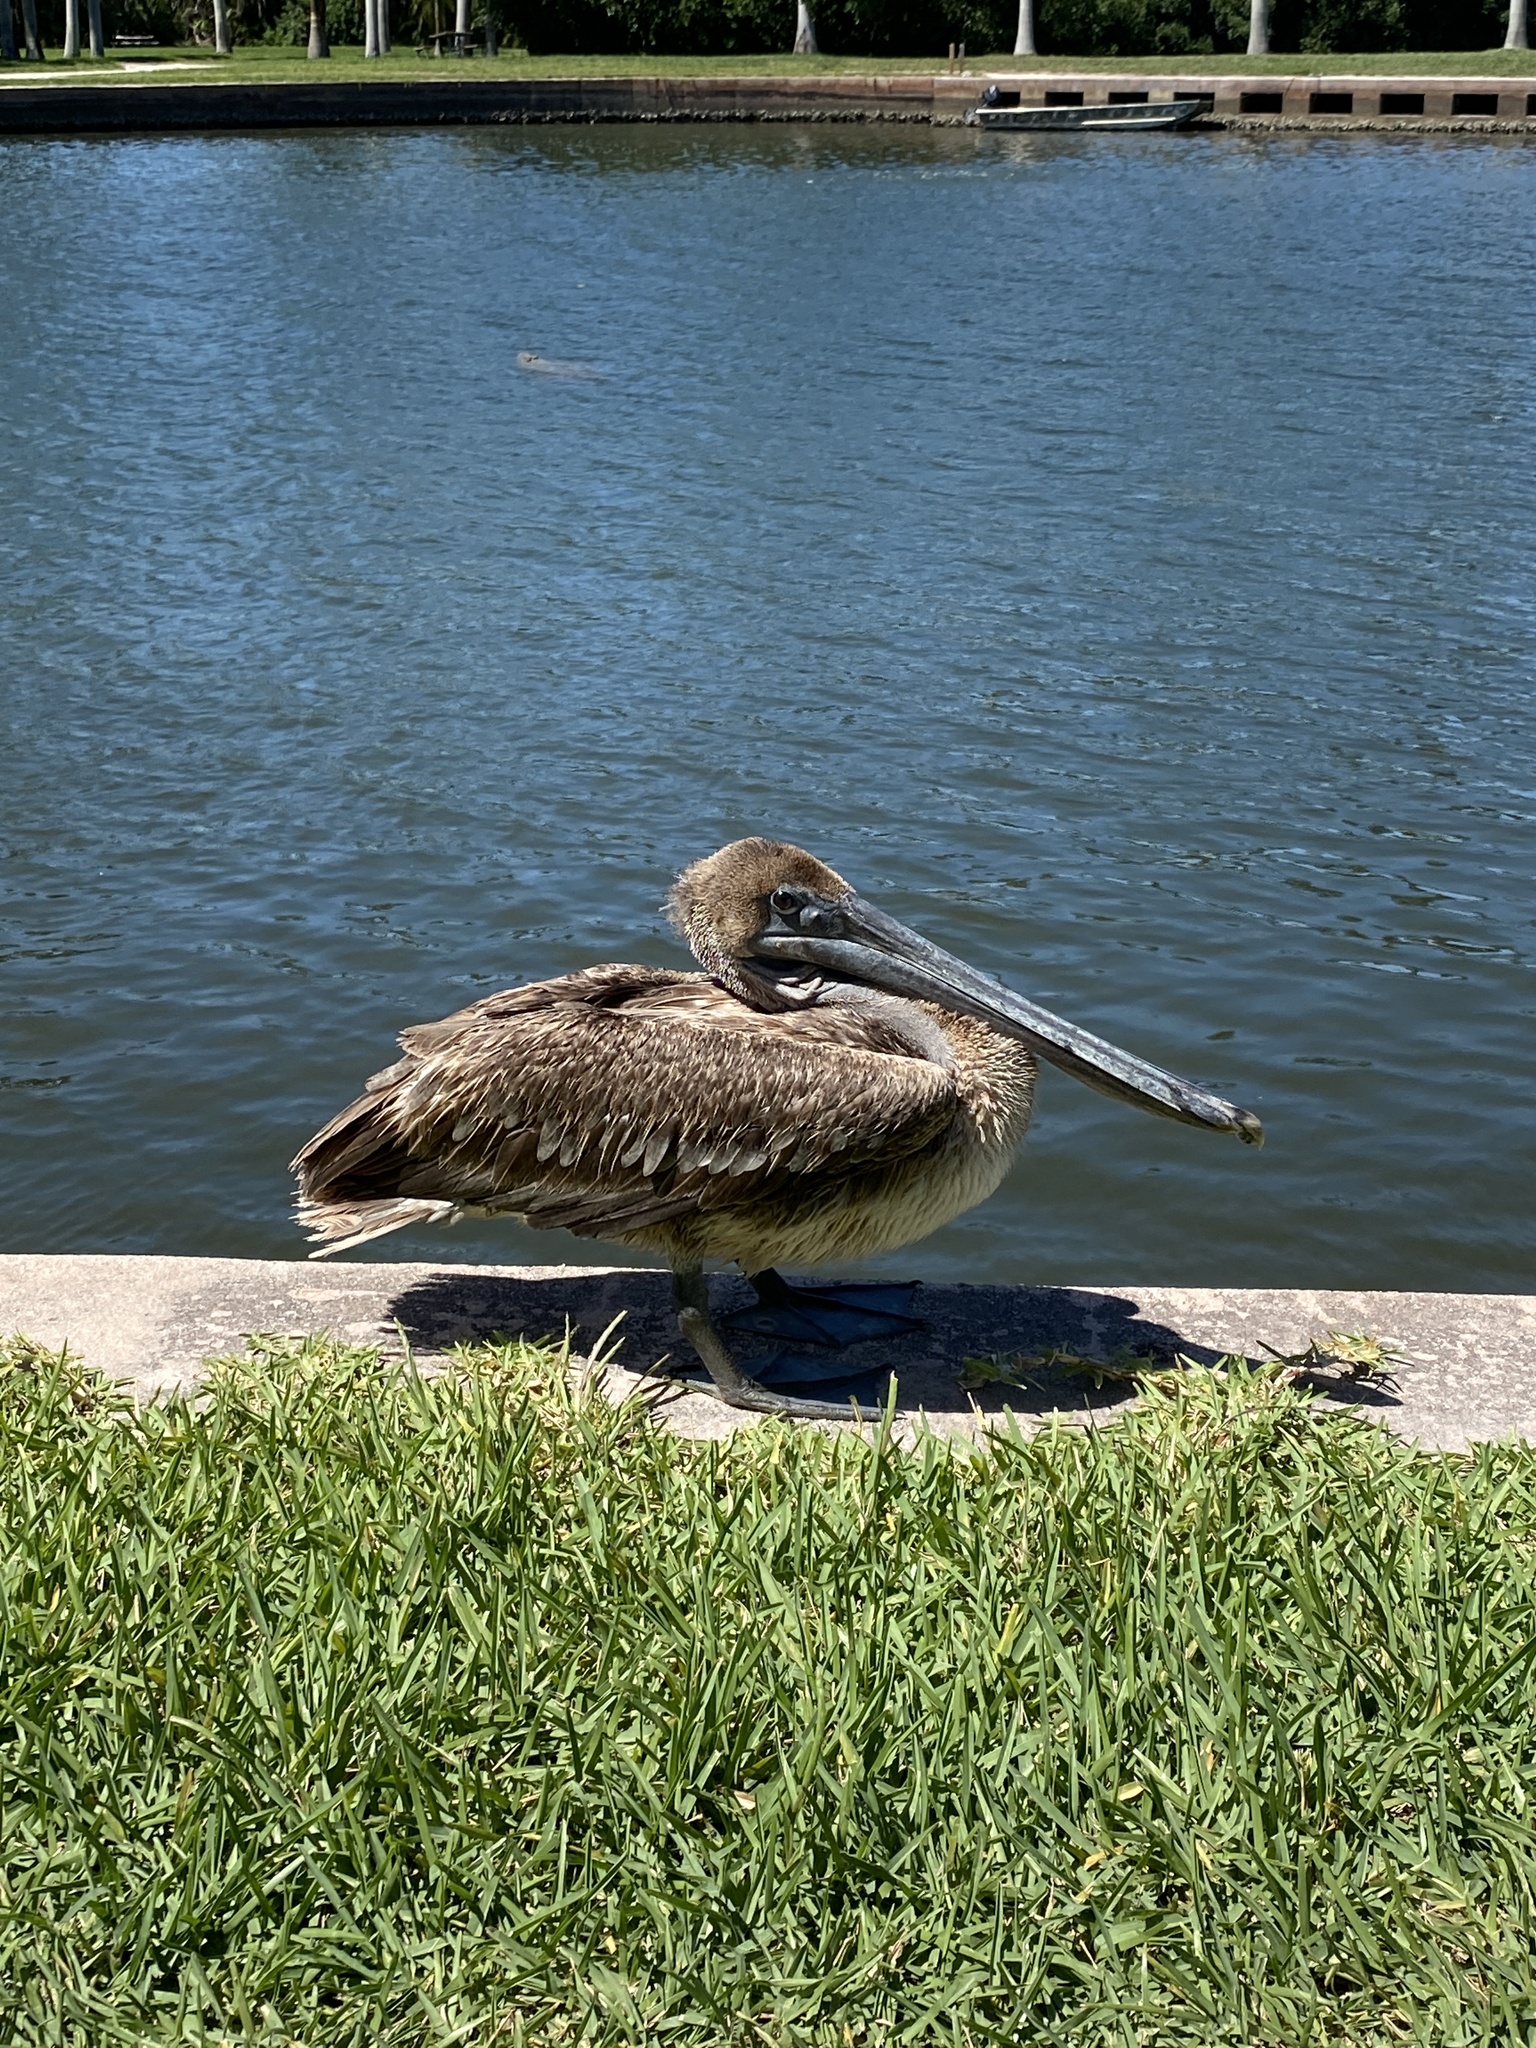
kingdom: Animalia
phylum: Chordata
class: Aves
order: Pelecaniformes
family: Pelecanidae
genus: Pelecanus
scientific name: Pelecanus occidentalis
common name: Brown pelican
